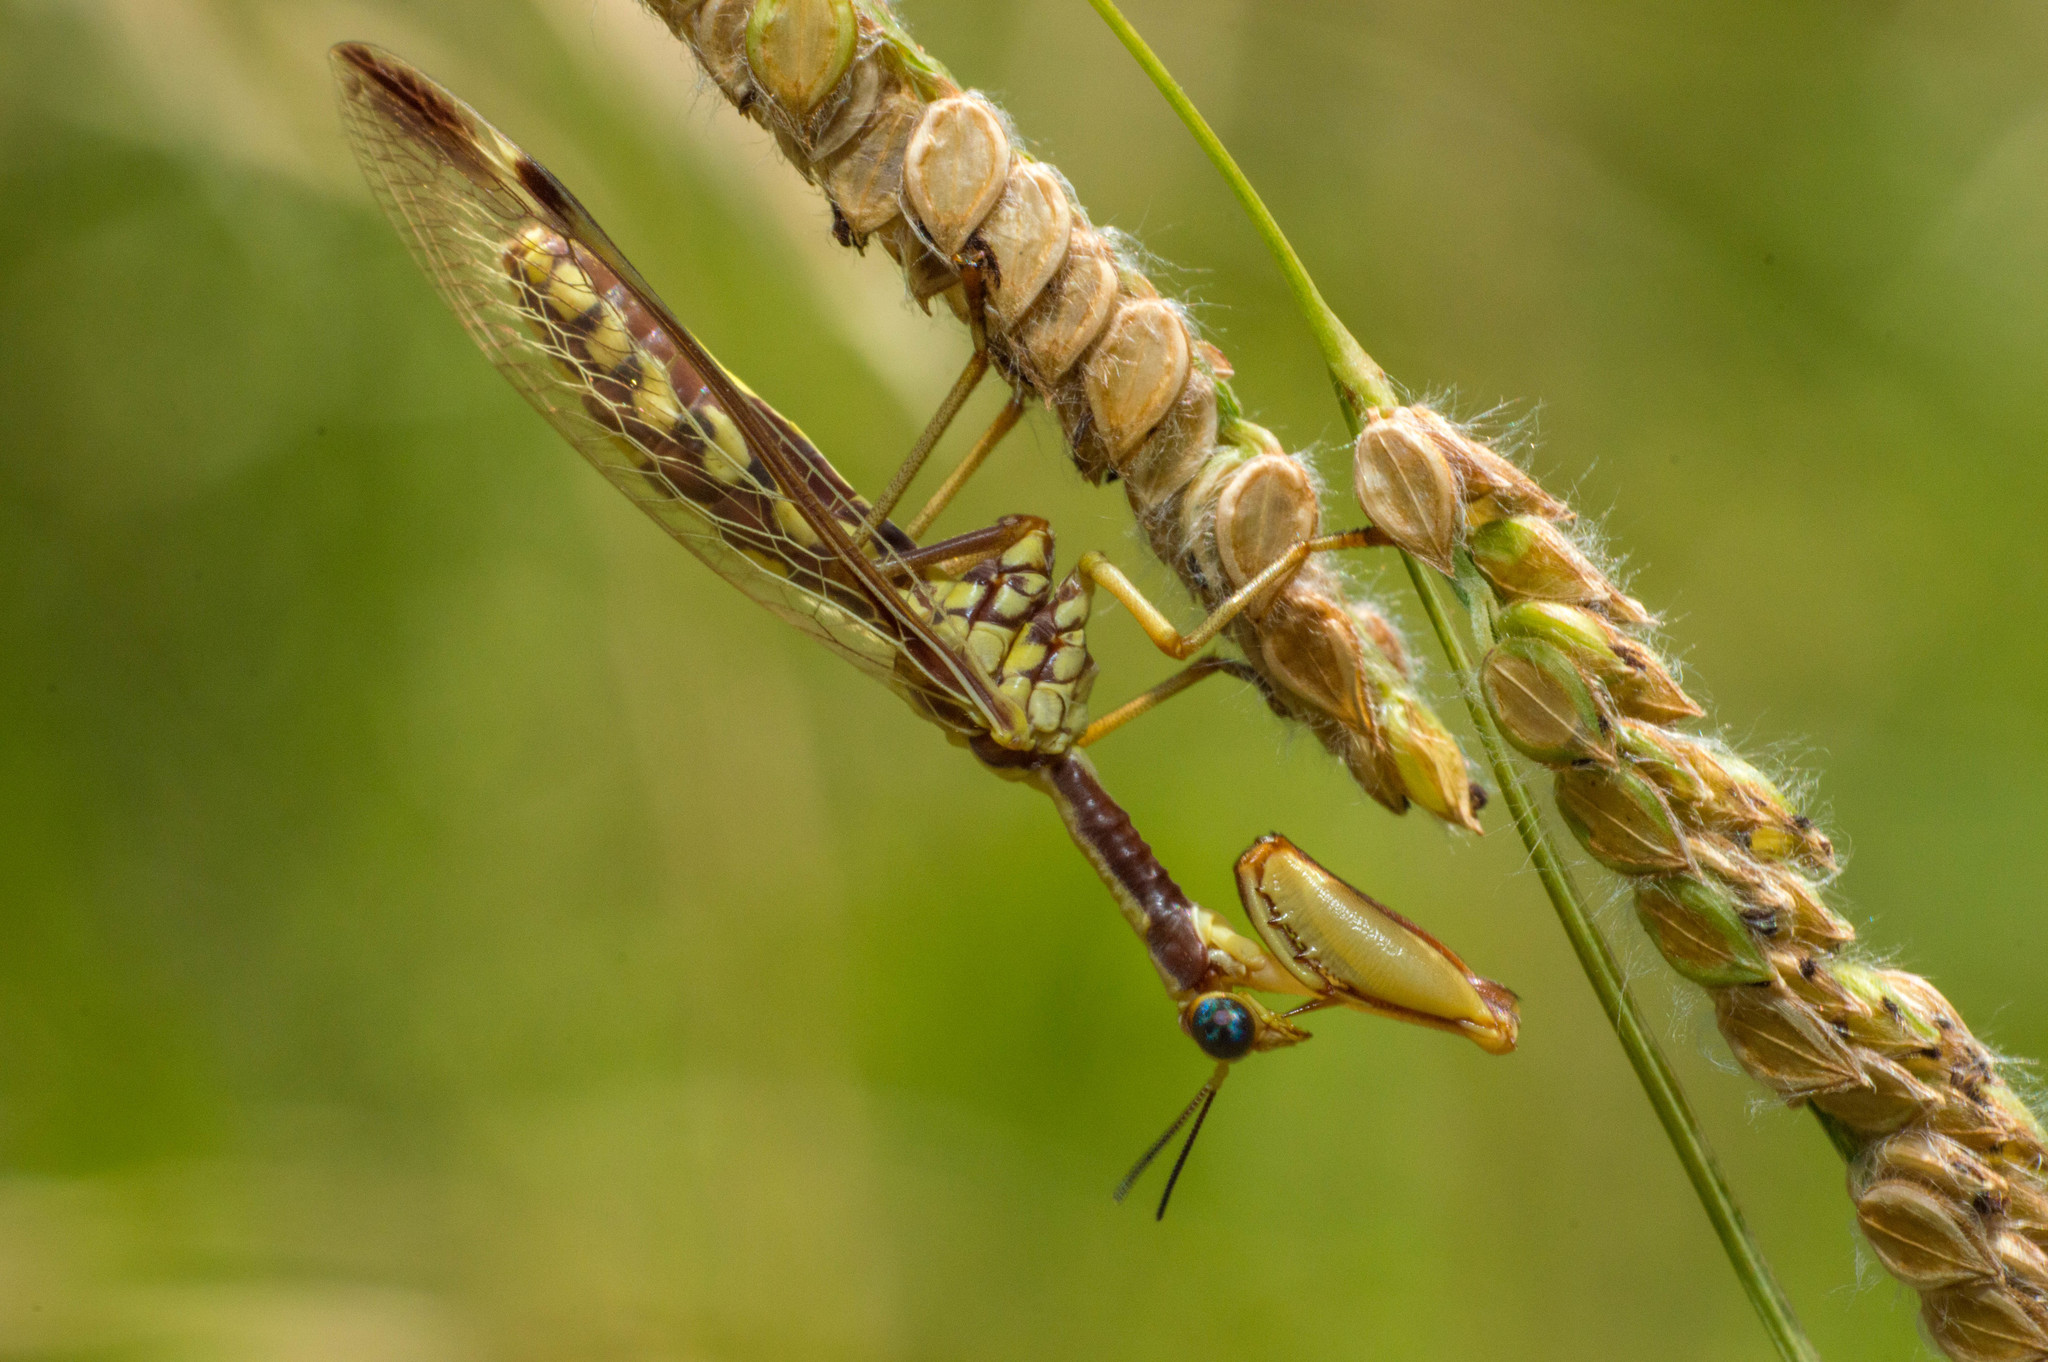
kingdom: Animalia
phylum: Arthropoda
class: Insecta
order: Neuroptera
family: Mantispidae
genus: Paramantispa
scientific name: Paramantispa prolixa
